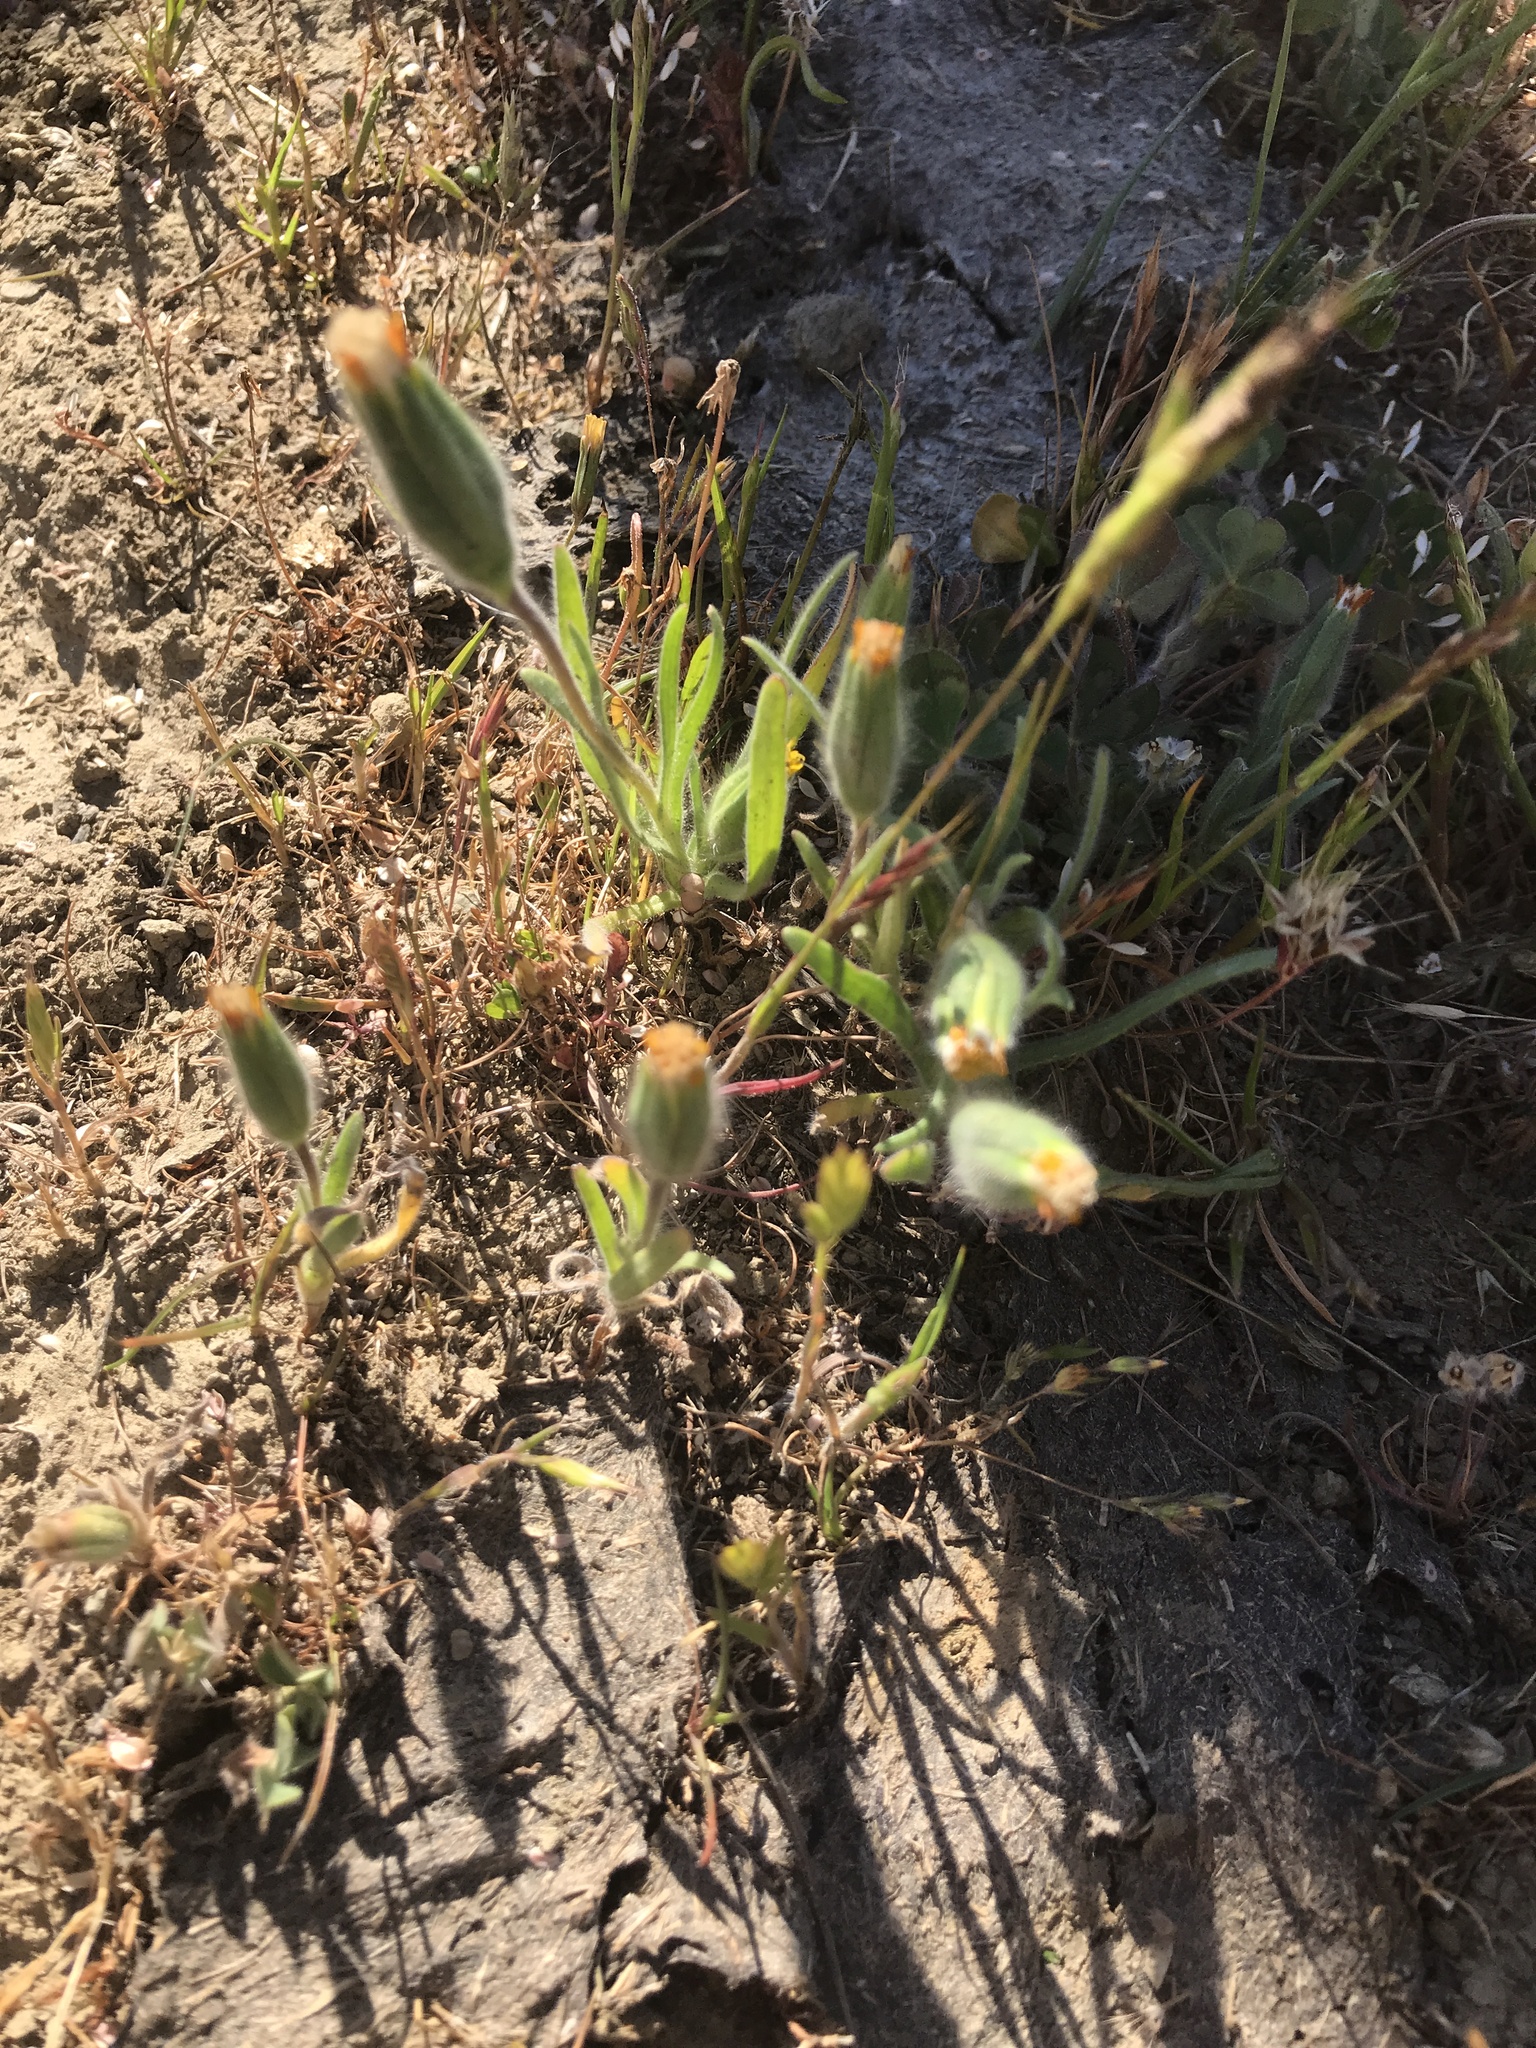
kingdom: Plantae
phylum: Tracheophyta
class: Magnoliopsida
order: Asterales
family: Asteraceae
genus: Achyrachaena
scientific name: Achyrachaena mollis
